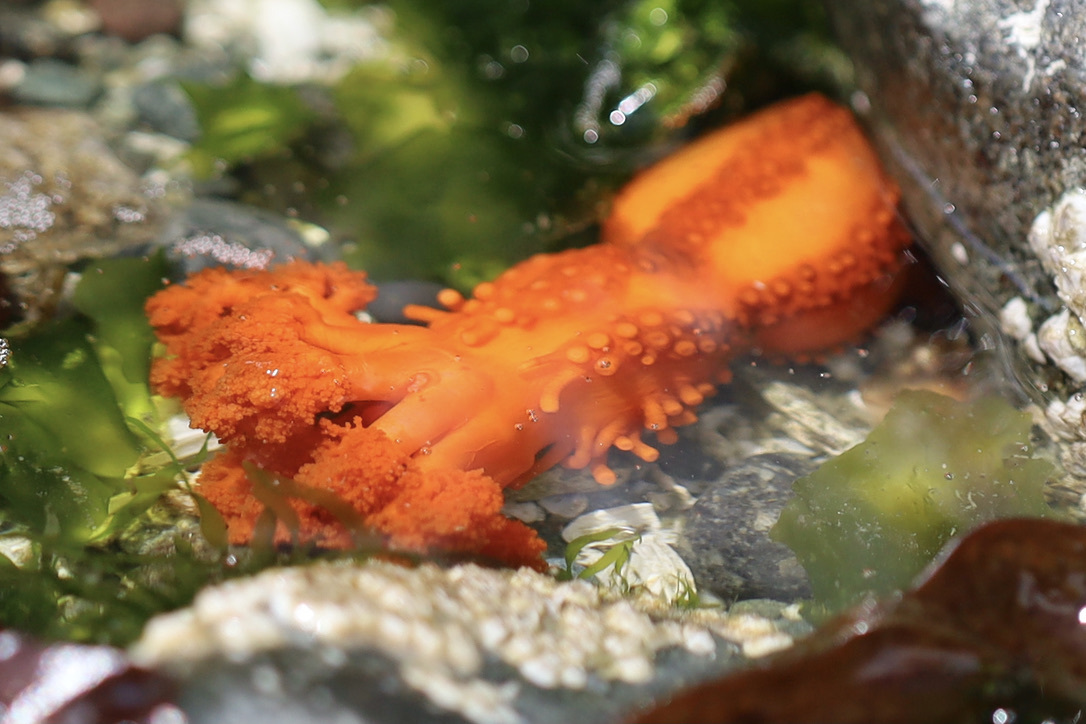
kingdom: Animalia
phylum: Echinodermata
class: Holothuroidea
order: Dendrochirotida
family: Cucumariidae
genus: Cucumaria
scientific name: Cucumaria miniata
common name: Orange sea cucumber
